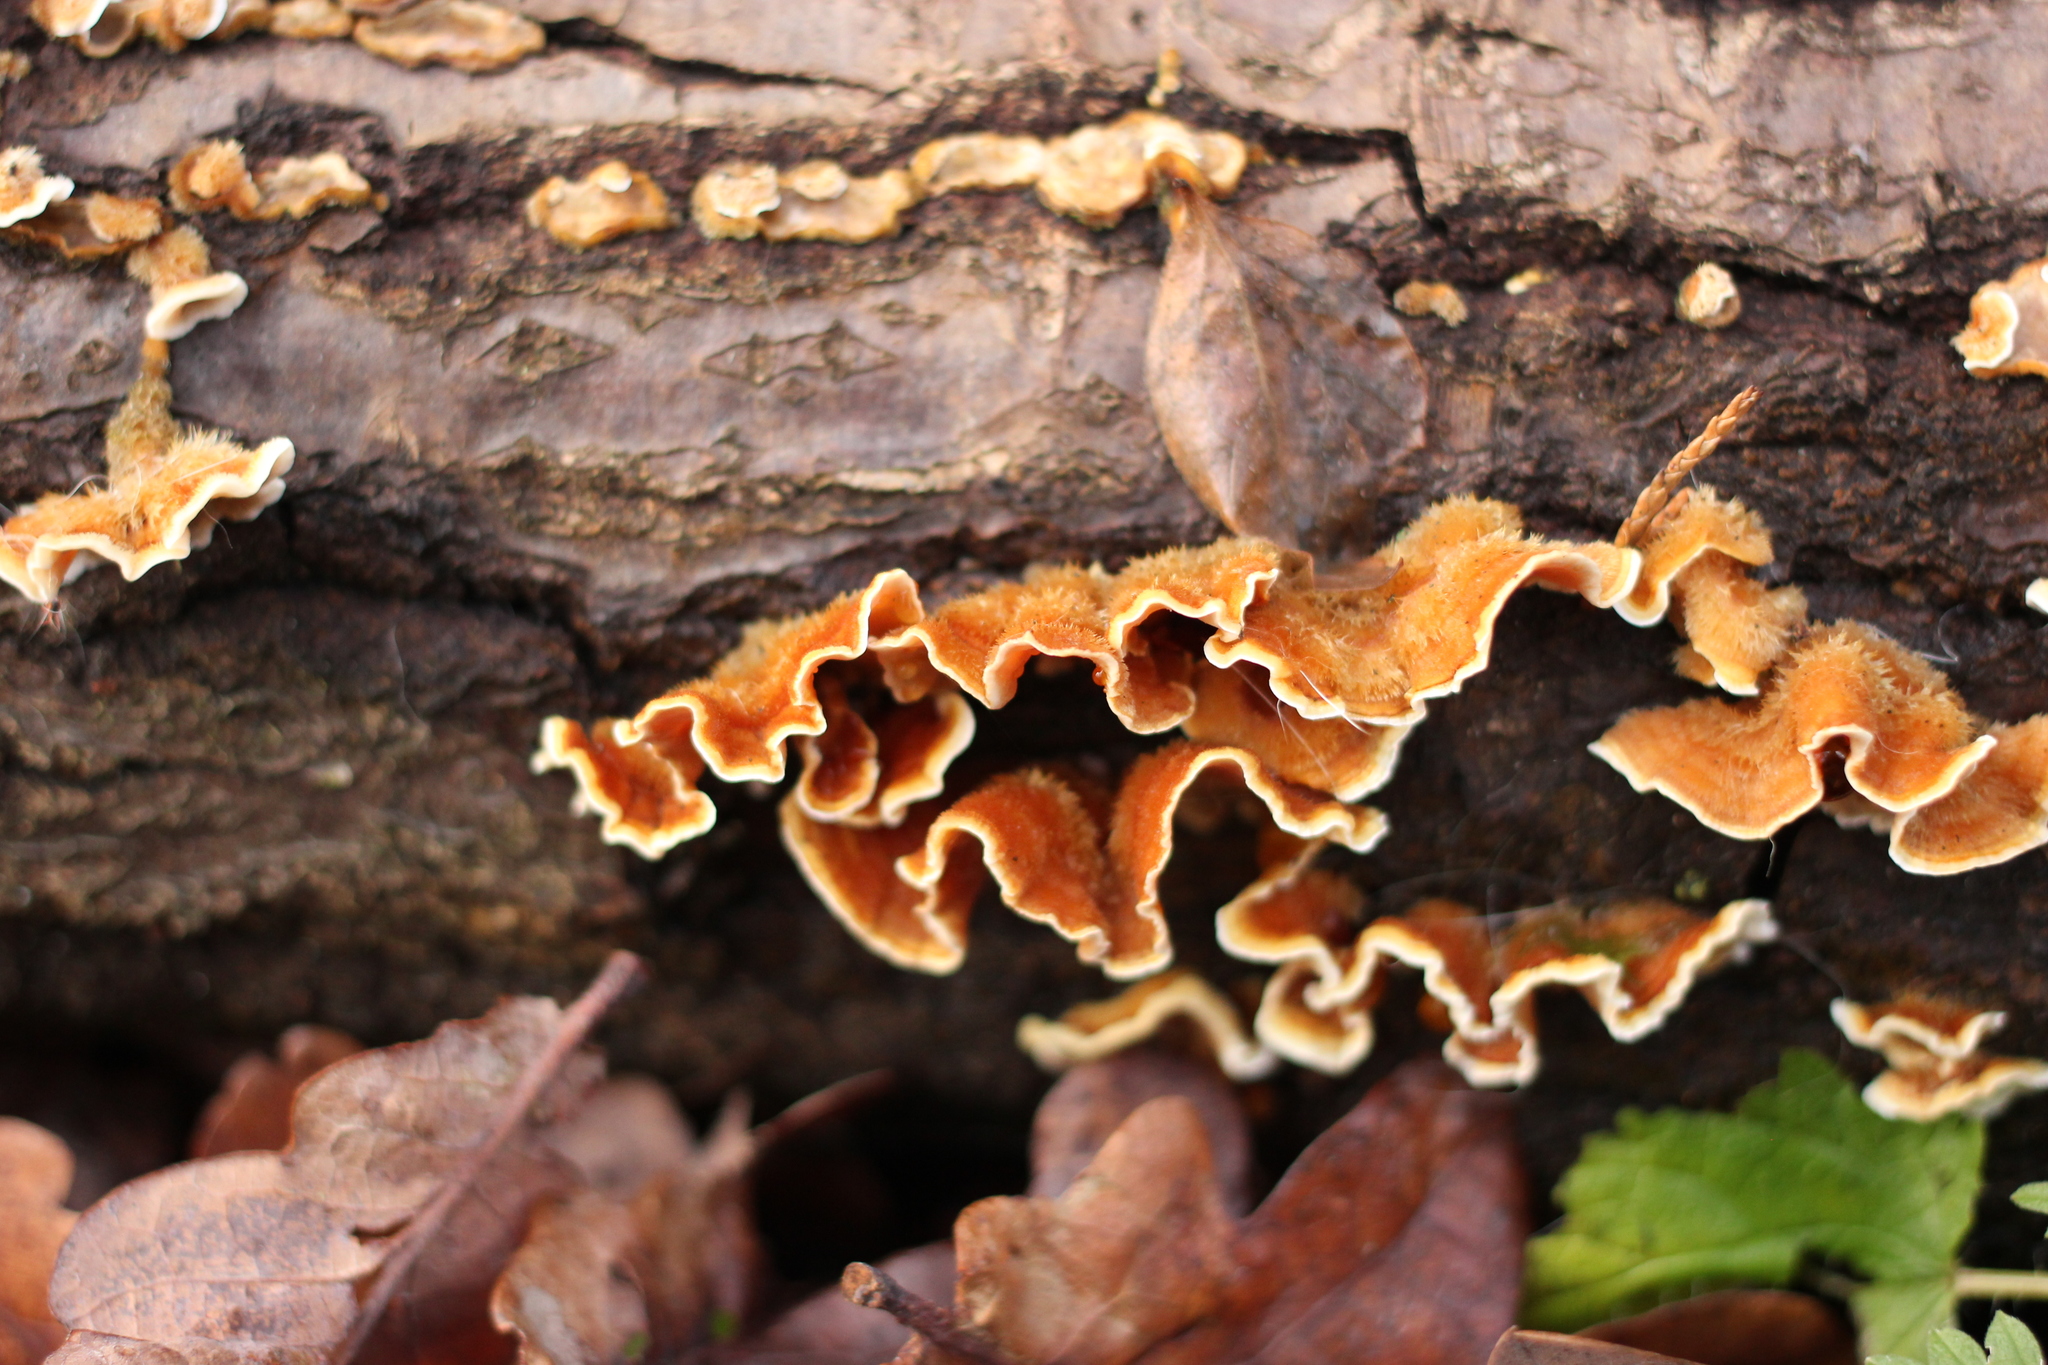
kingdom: Fungi
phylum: Basidiomycota
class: Agaricomycetes
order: Russulales
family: Stereaceae
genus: Stereum
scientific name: Stereum hirsutum
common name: Hairy curtain crust
